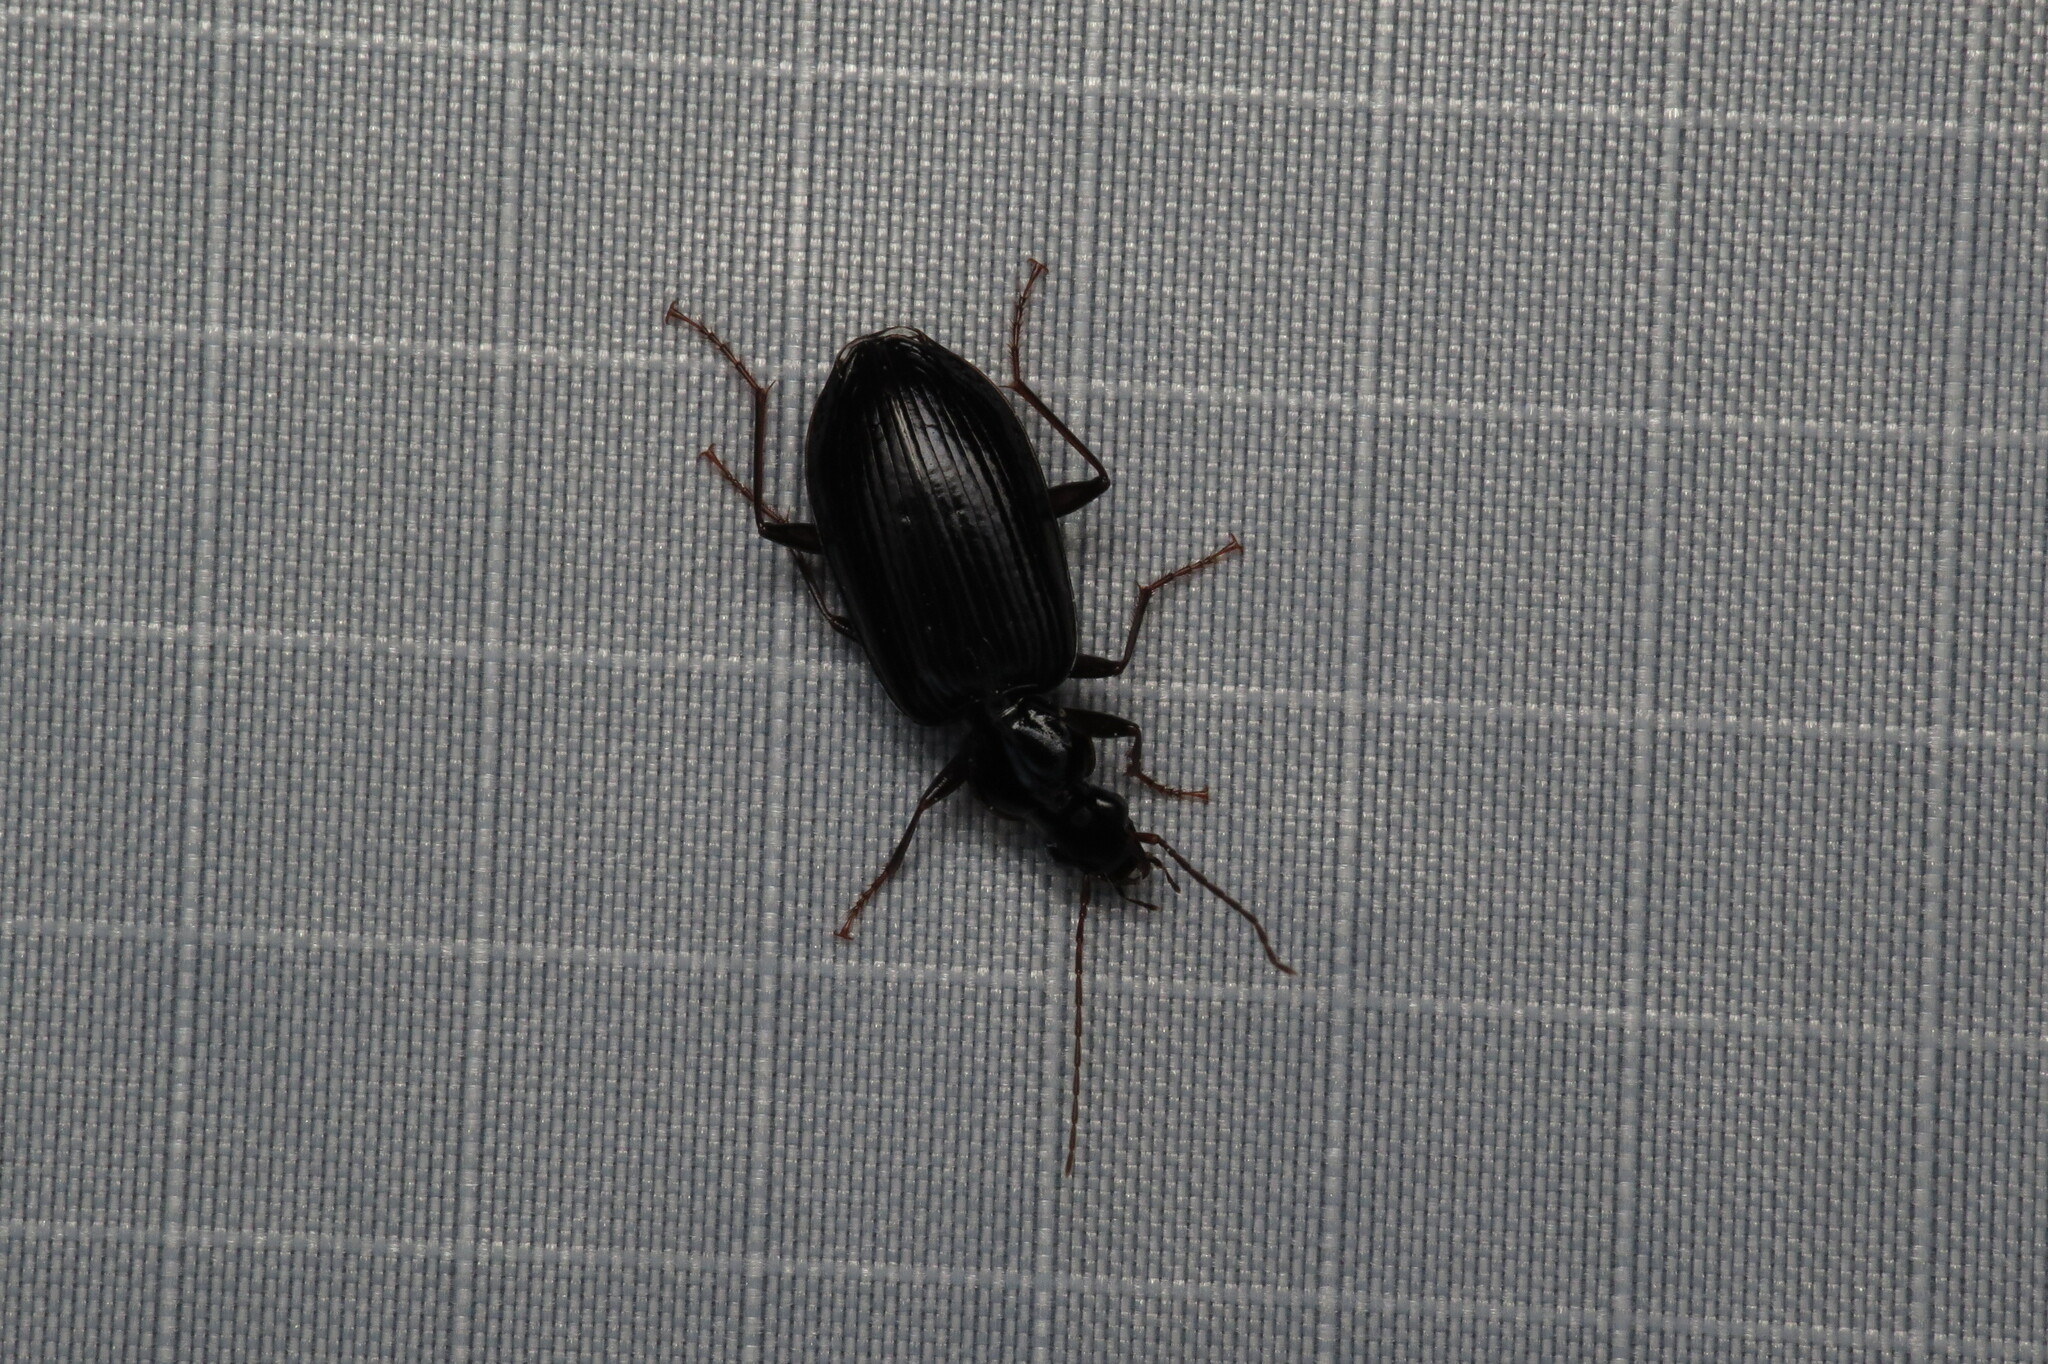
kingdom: Animalia
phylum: Arthropoda
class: Insecta
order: Coleoptera
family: Carabidae
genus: Platynus
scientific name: Platynus cincticollis
